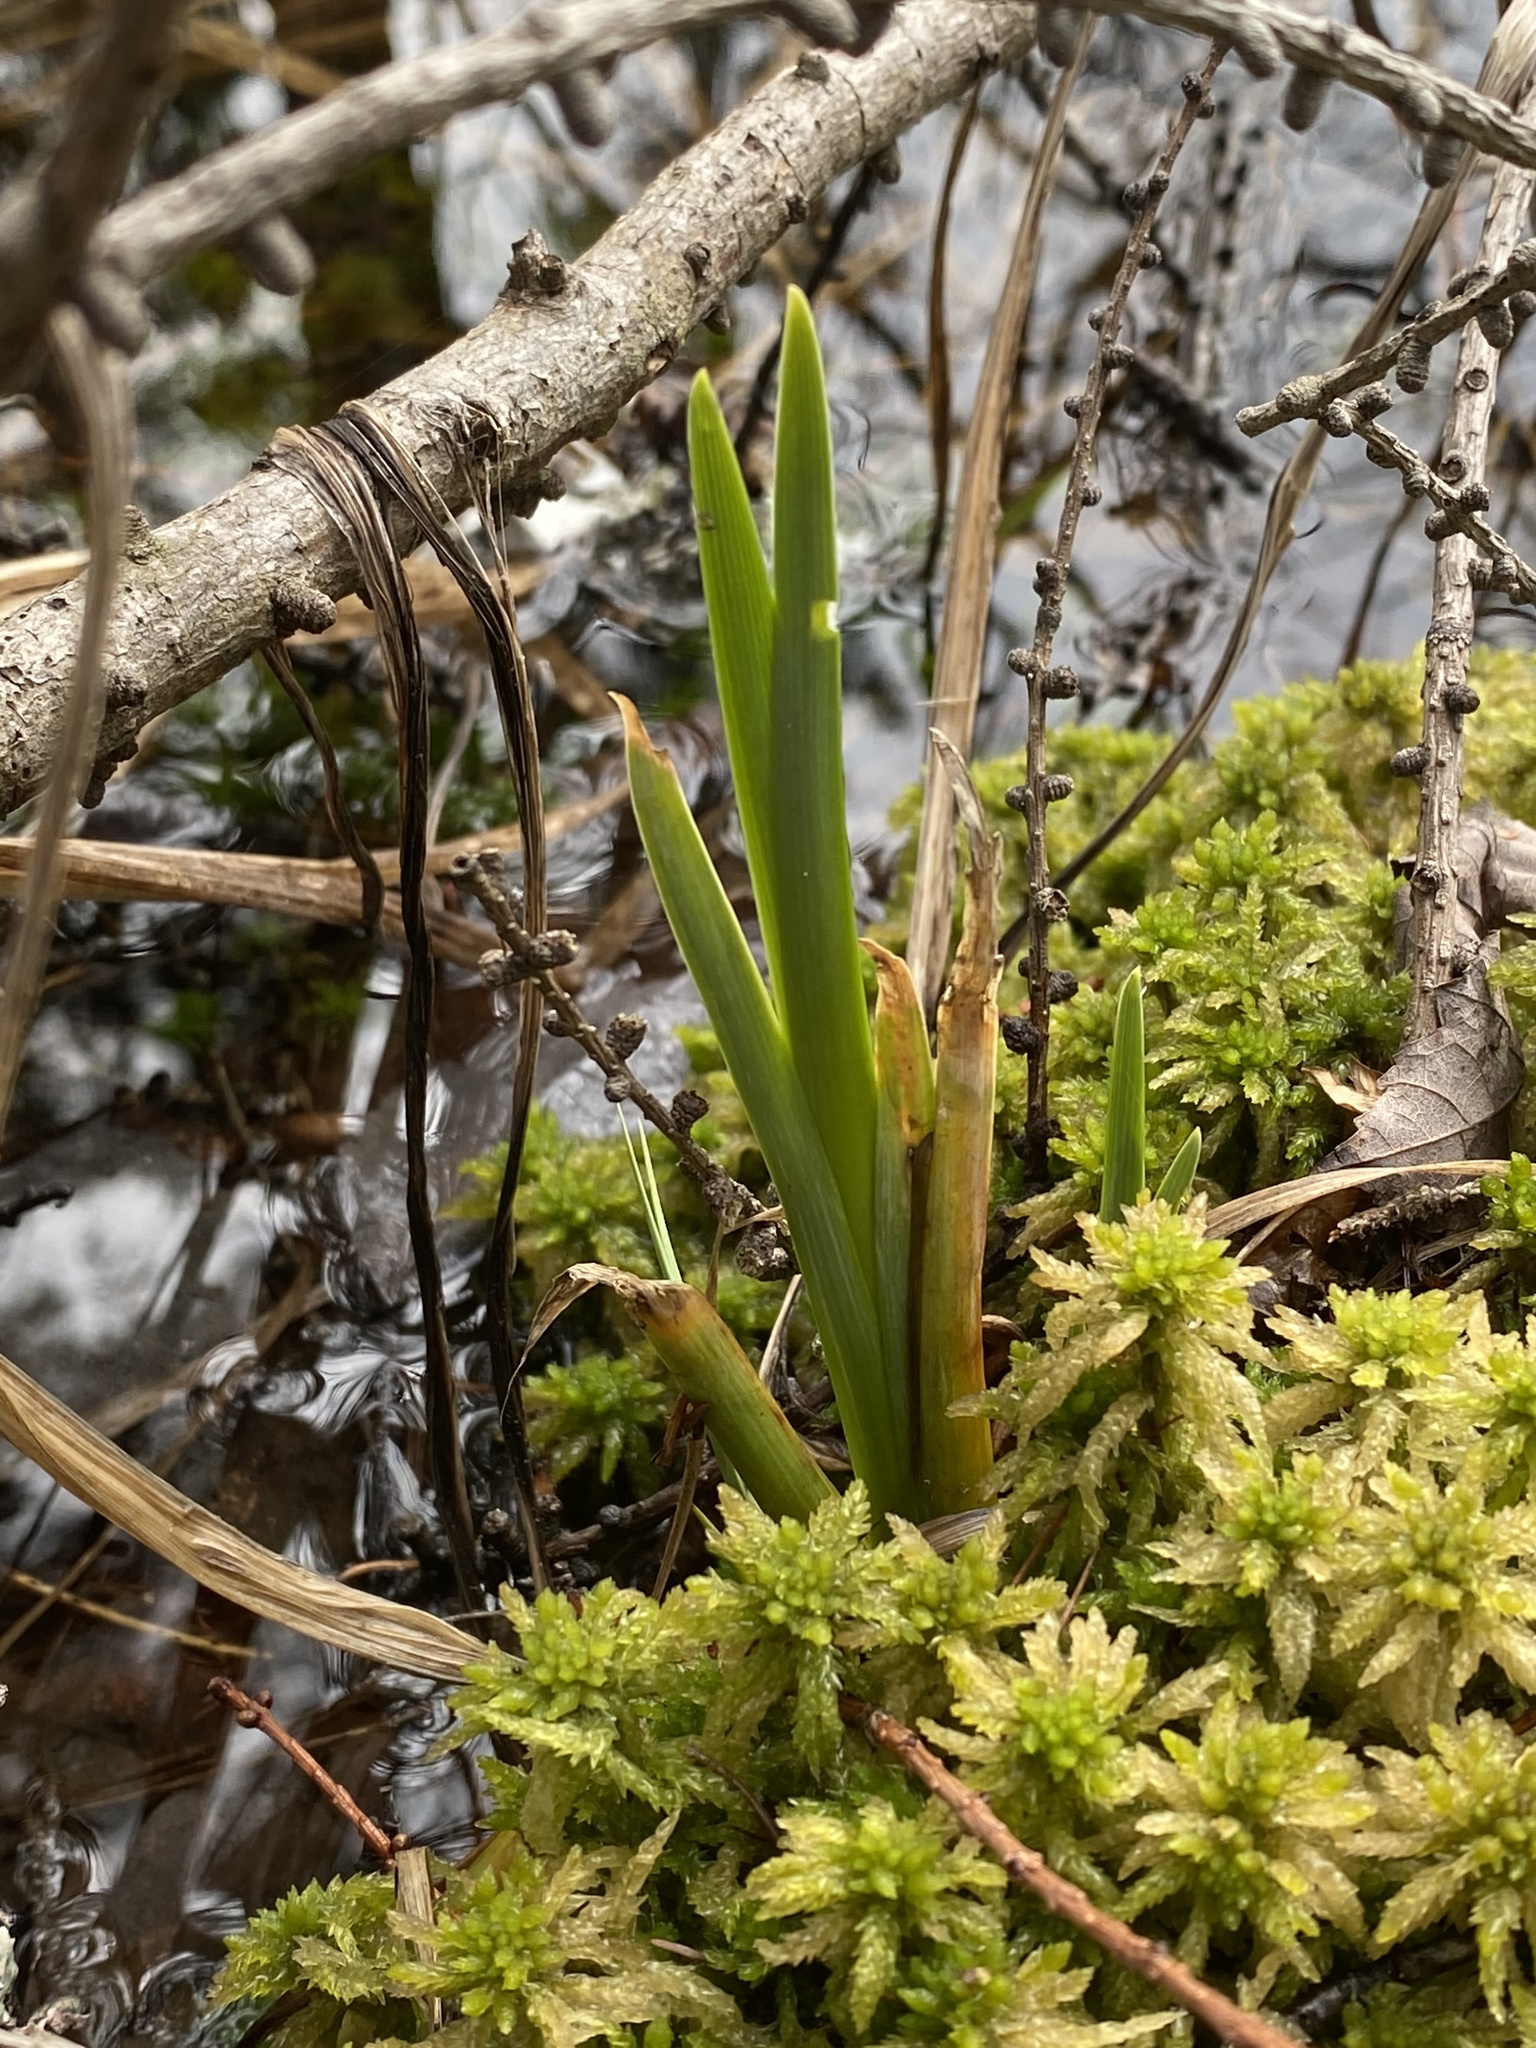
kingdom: Plantae
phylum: Tracheophyta
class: Liliopsida
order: Asparagales
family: Iridaceae
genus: Iris
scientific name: Iris versicolor
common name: Purple iris
